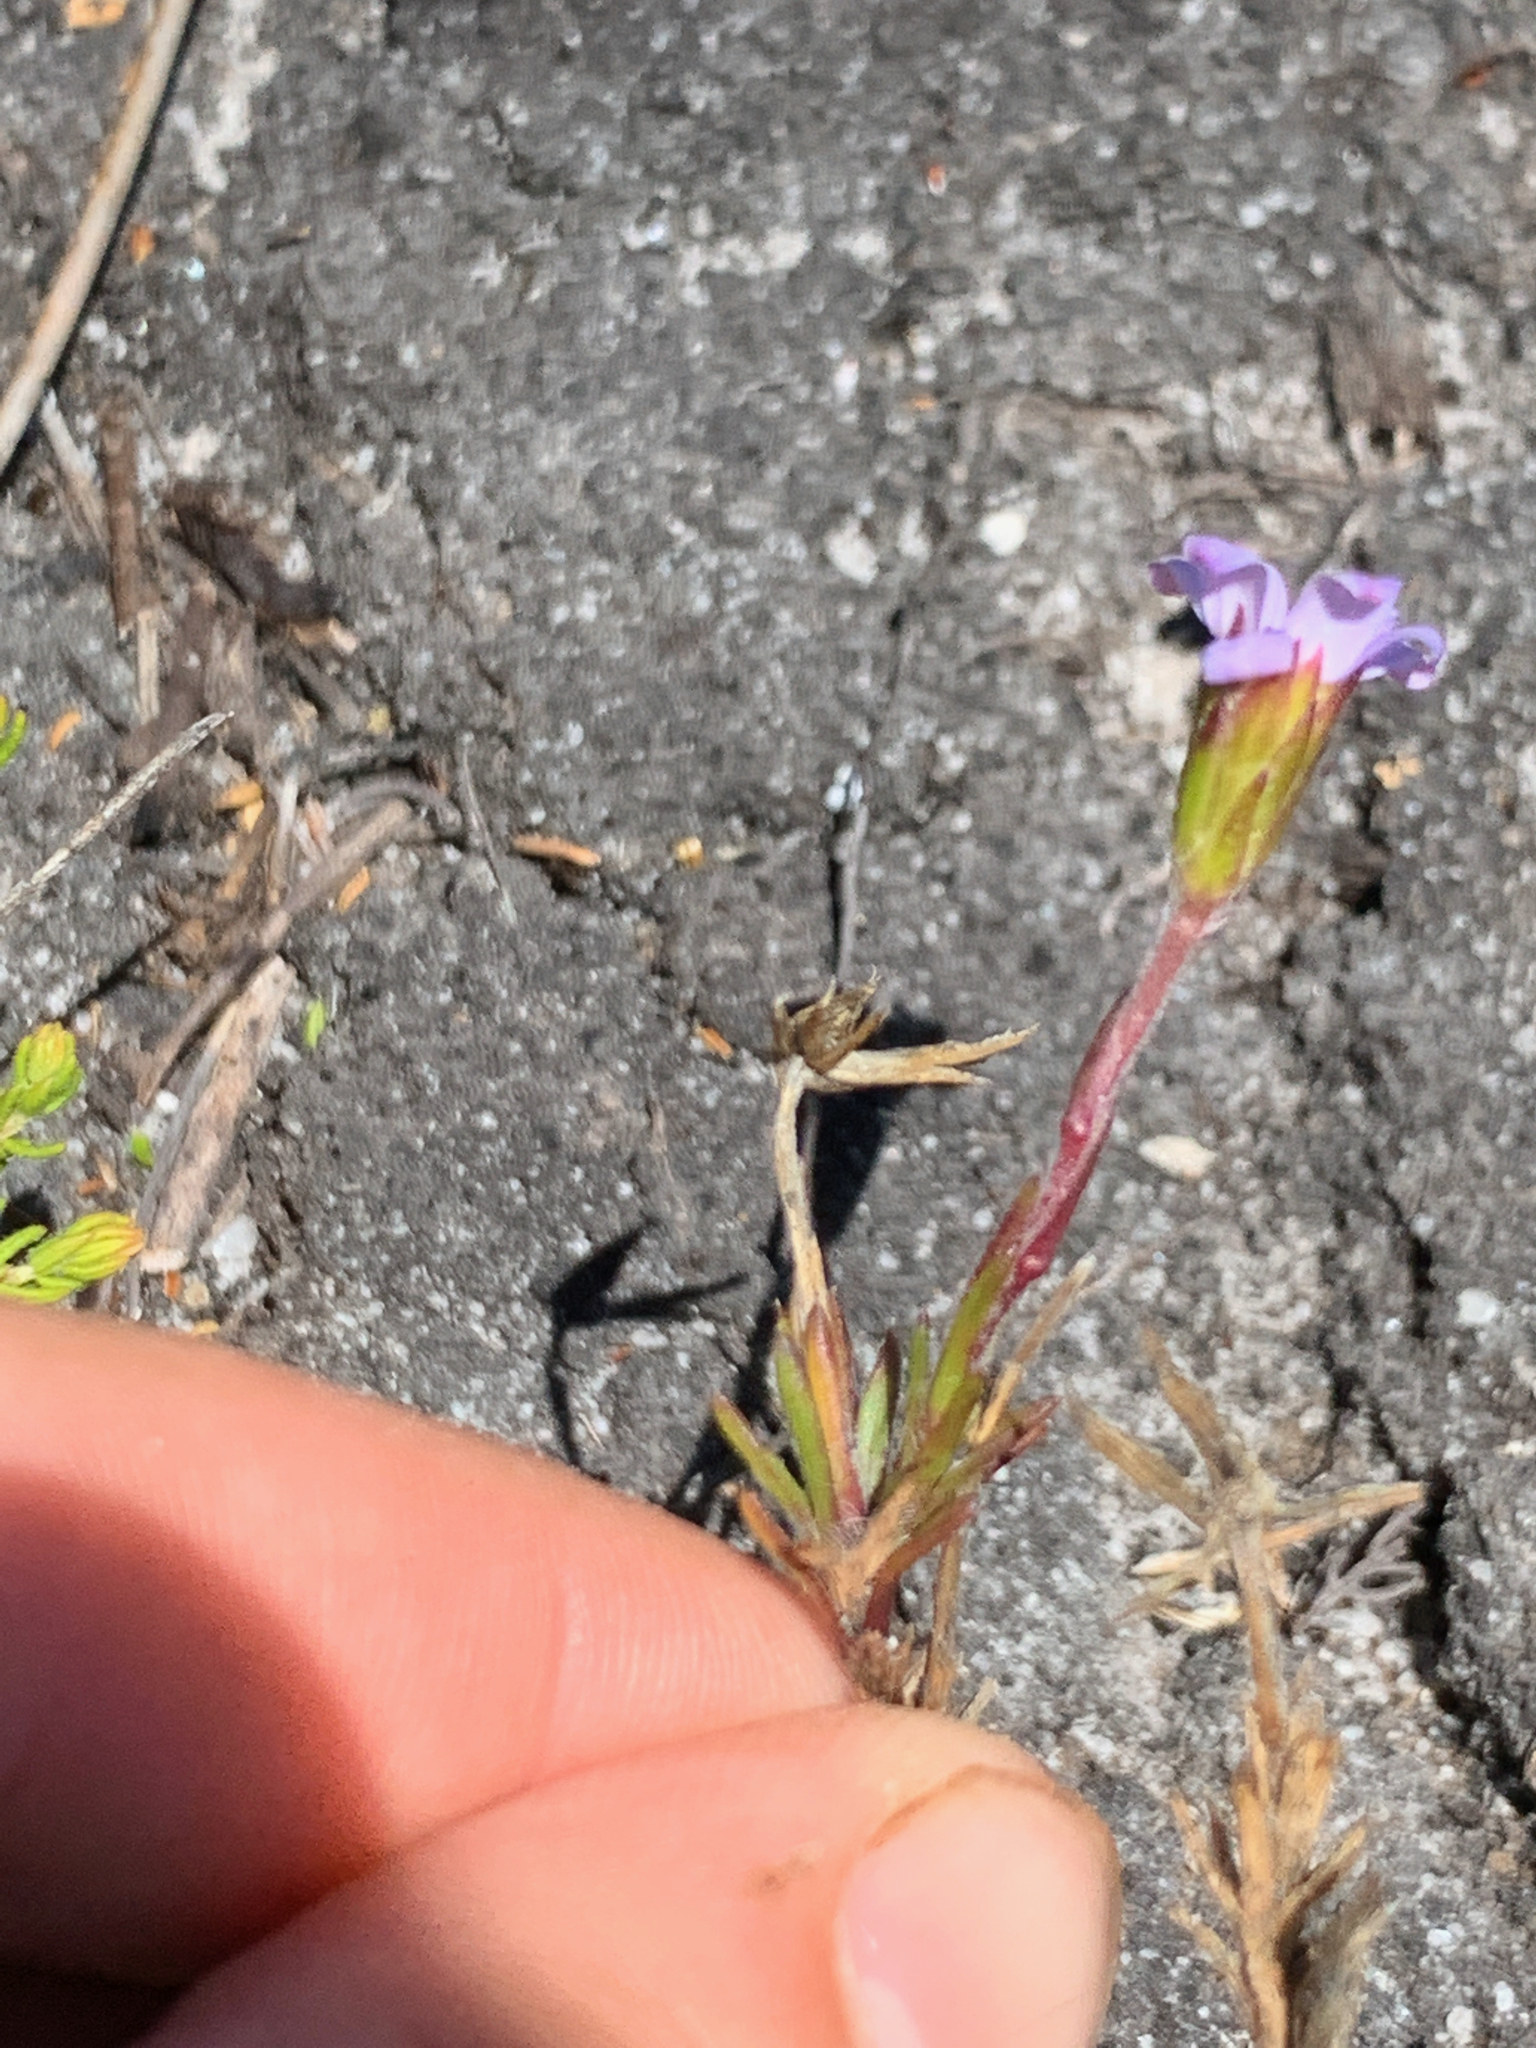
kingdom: Plantae
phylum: Tracheophyta
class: Magnoliopsida
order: Asterales
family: Asteraceae
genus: Zyrphelis
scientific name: Zyrphelis taxifolia
